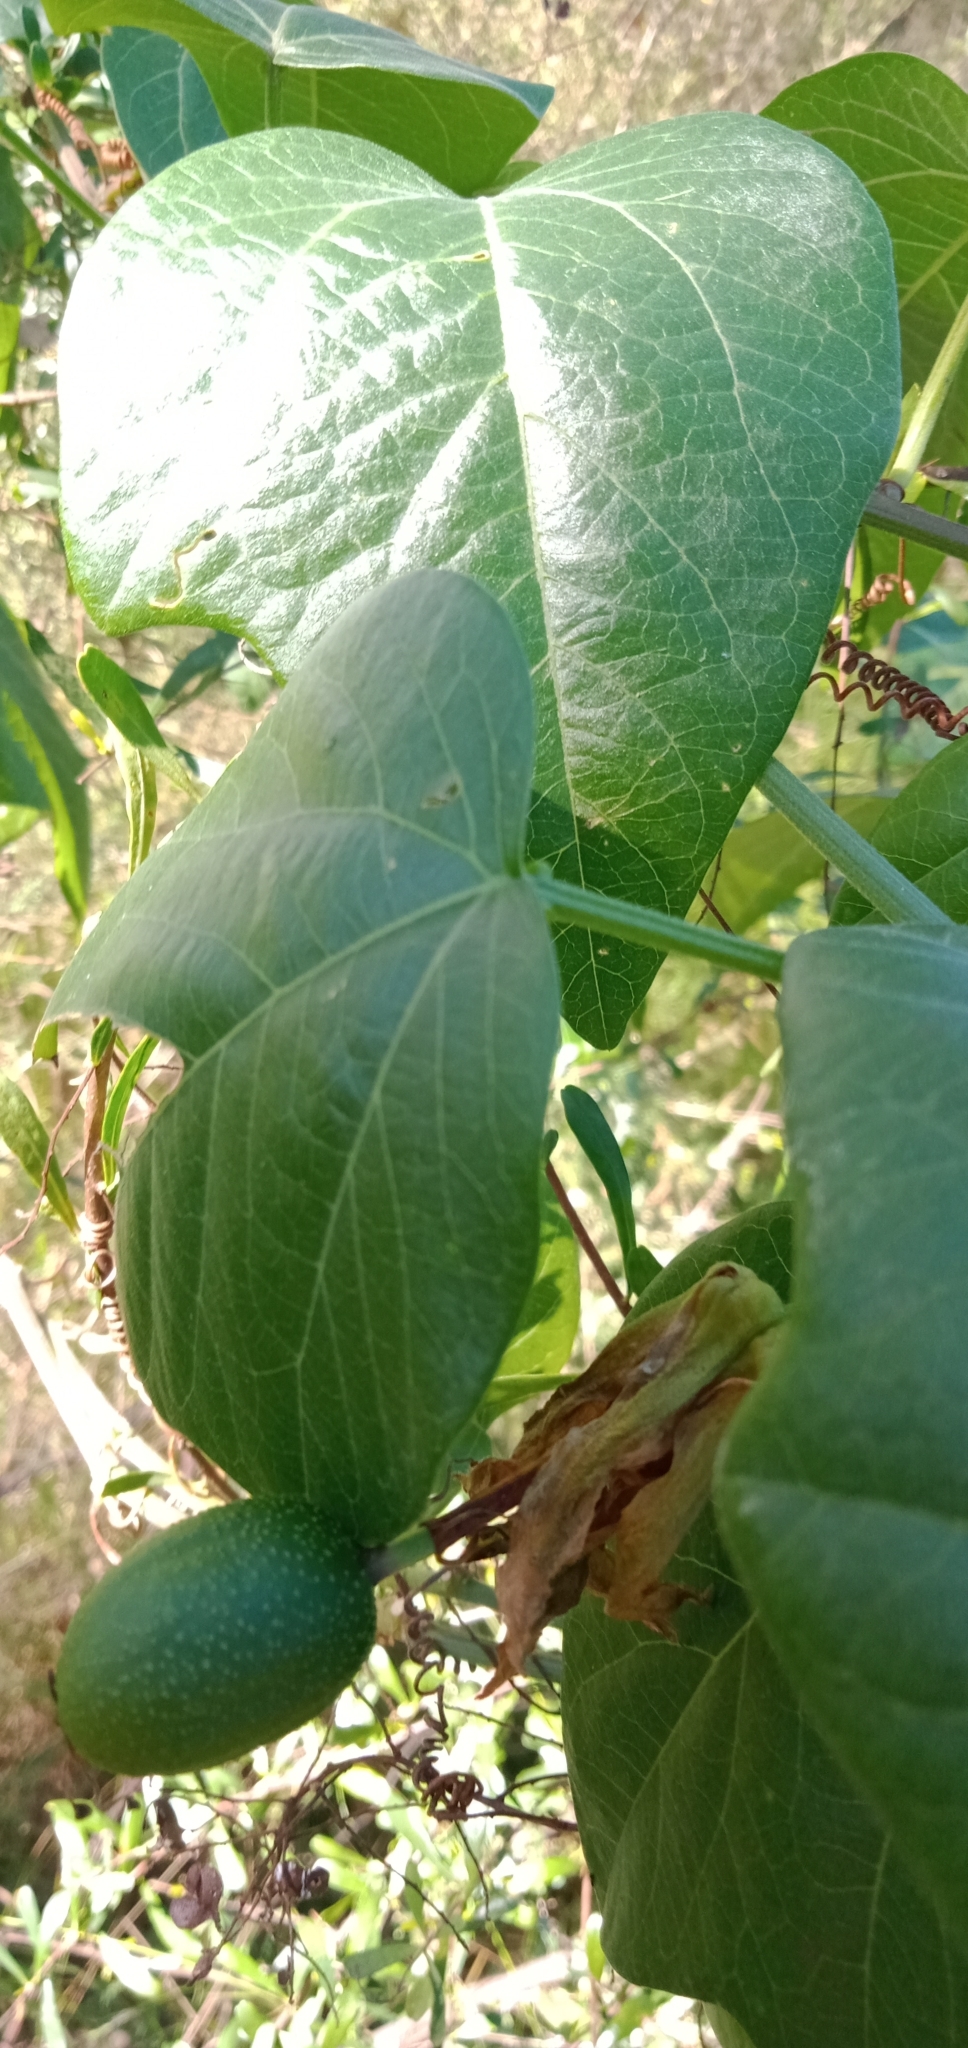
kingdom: Plantae
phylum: Tracheophyta
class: Magnoliopsida
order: Malpighiales
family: Passifloraceae
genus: Passiflora
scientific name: Passiflora herbertiana
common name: Yellow passionflower
